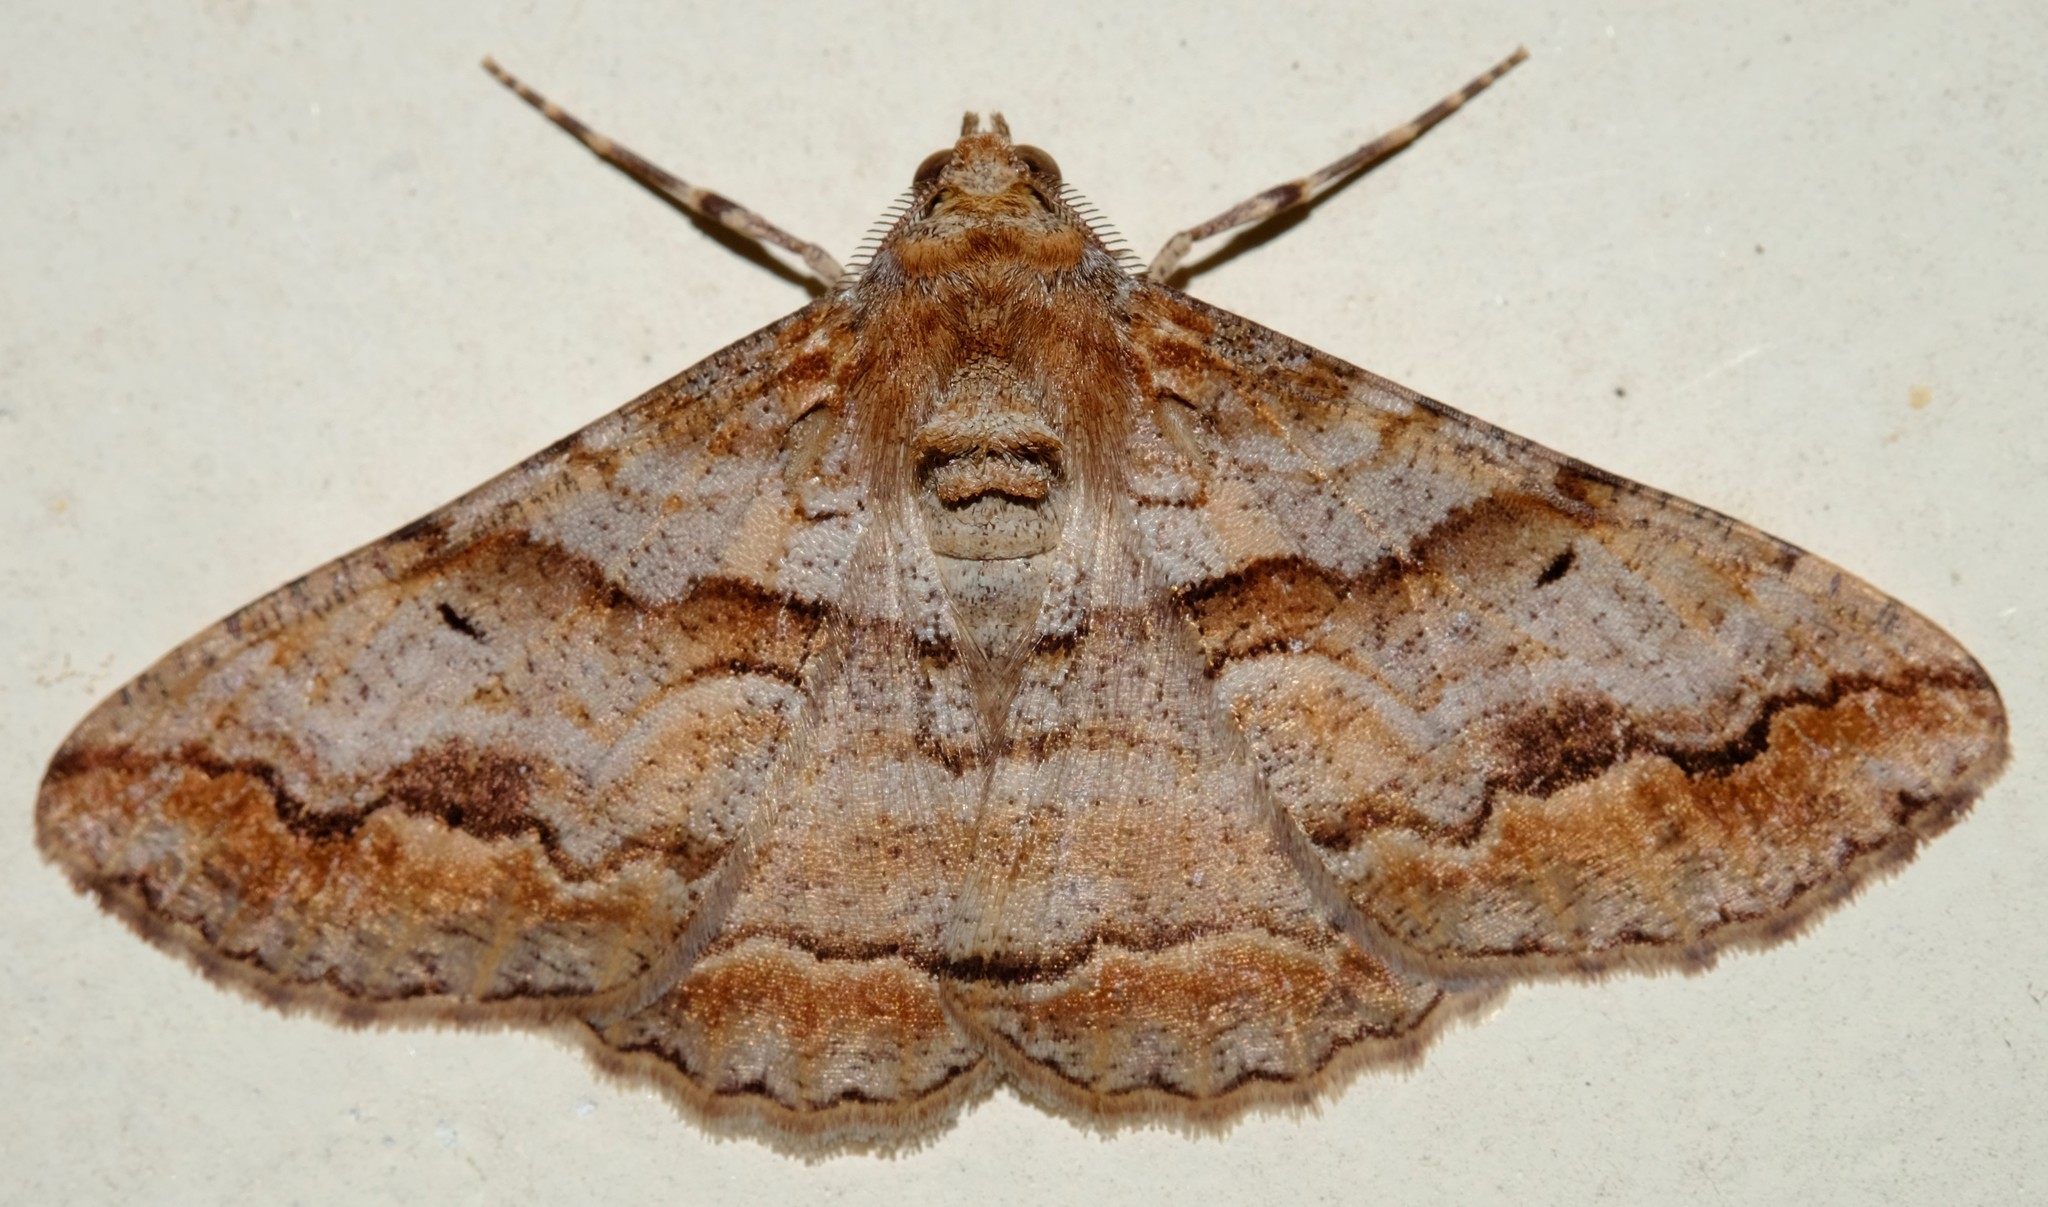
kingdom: Animalia
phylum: Arthropoda
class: Insecta
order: Lepidoptera
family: Geometridae
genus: Gastrinodes
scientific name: Gastrinodes bitaeniaria
